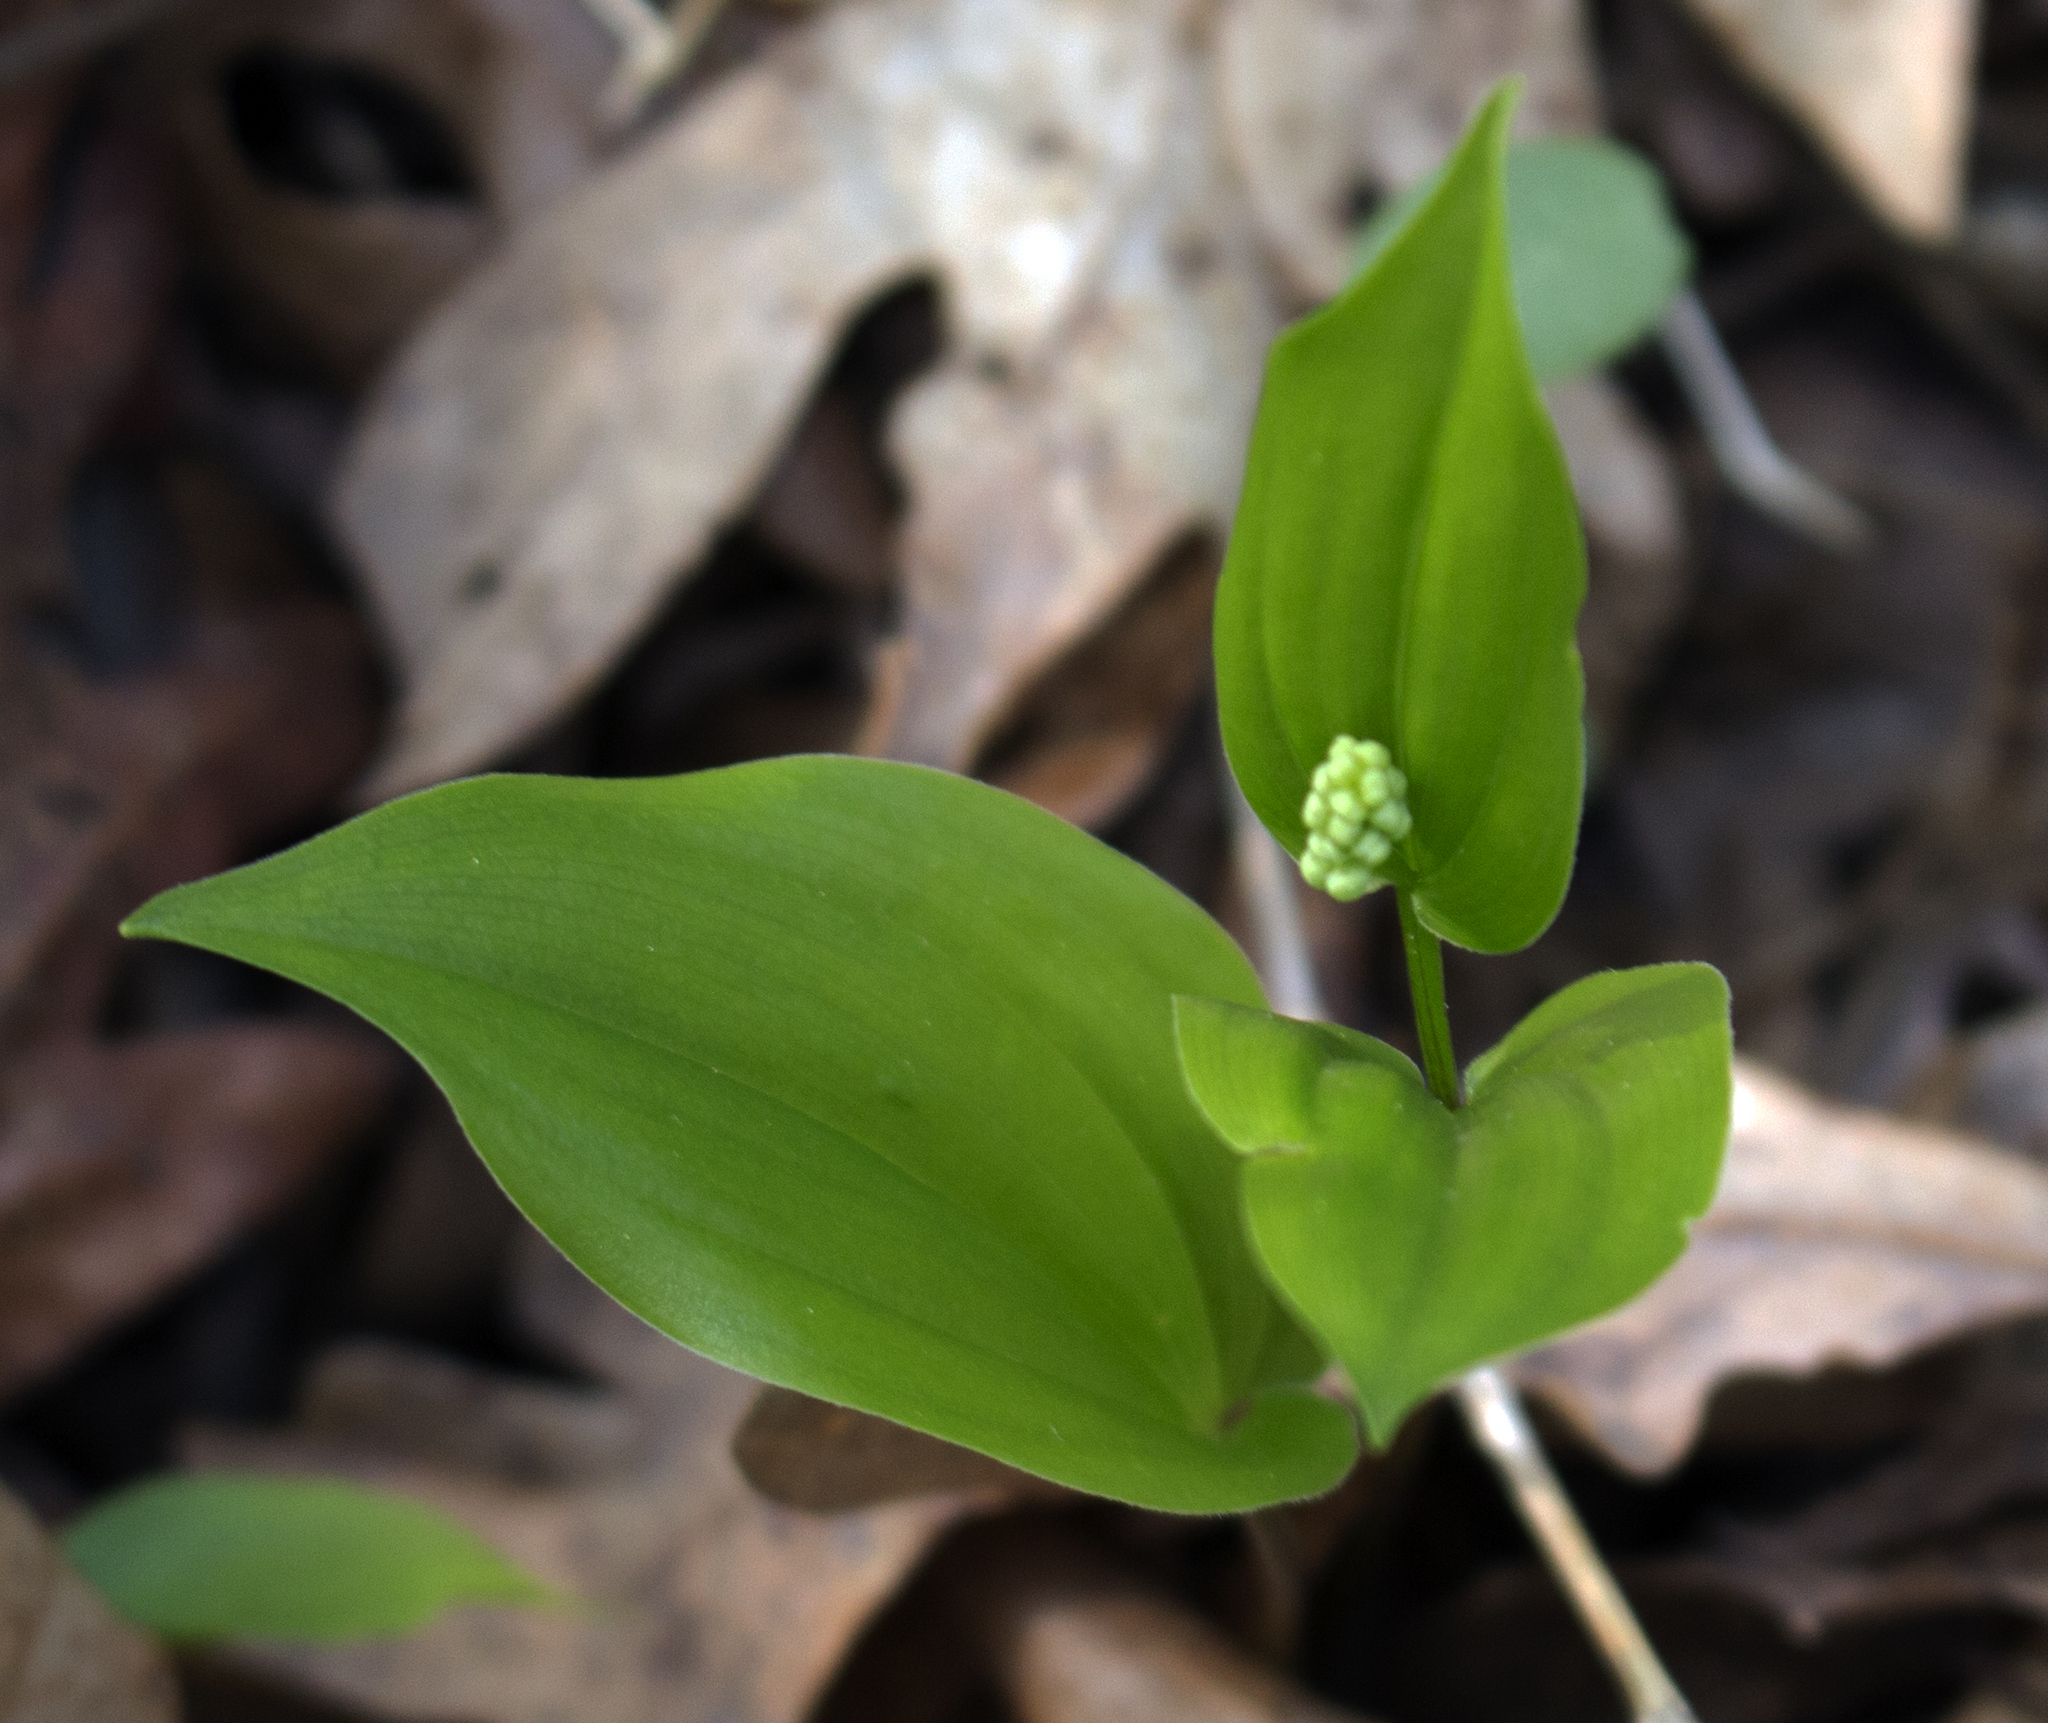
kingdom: Plantae
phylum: Tracheophyta
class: Liliopsida
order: Asparagales
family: Asparagaceae
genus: Maianthemum
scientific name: Maianthemum canadense
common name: False lily-of-the-valley
